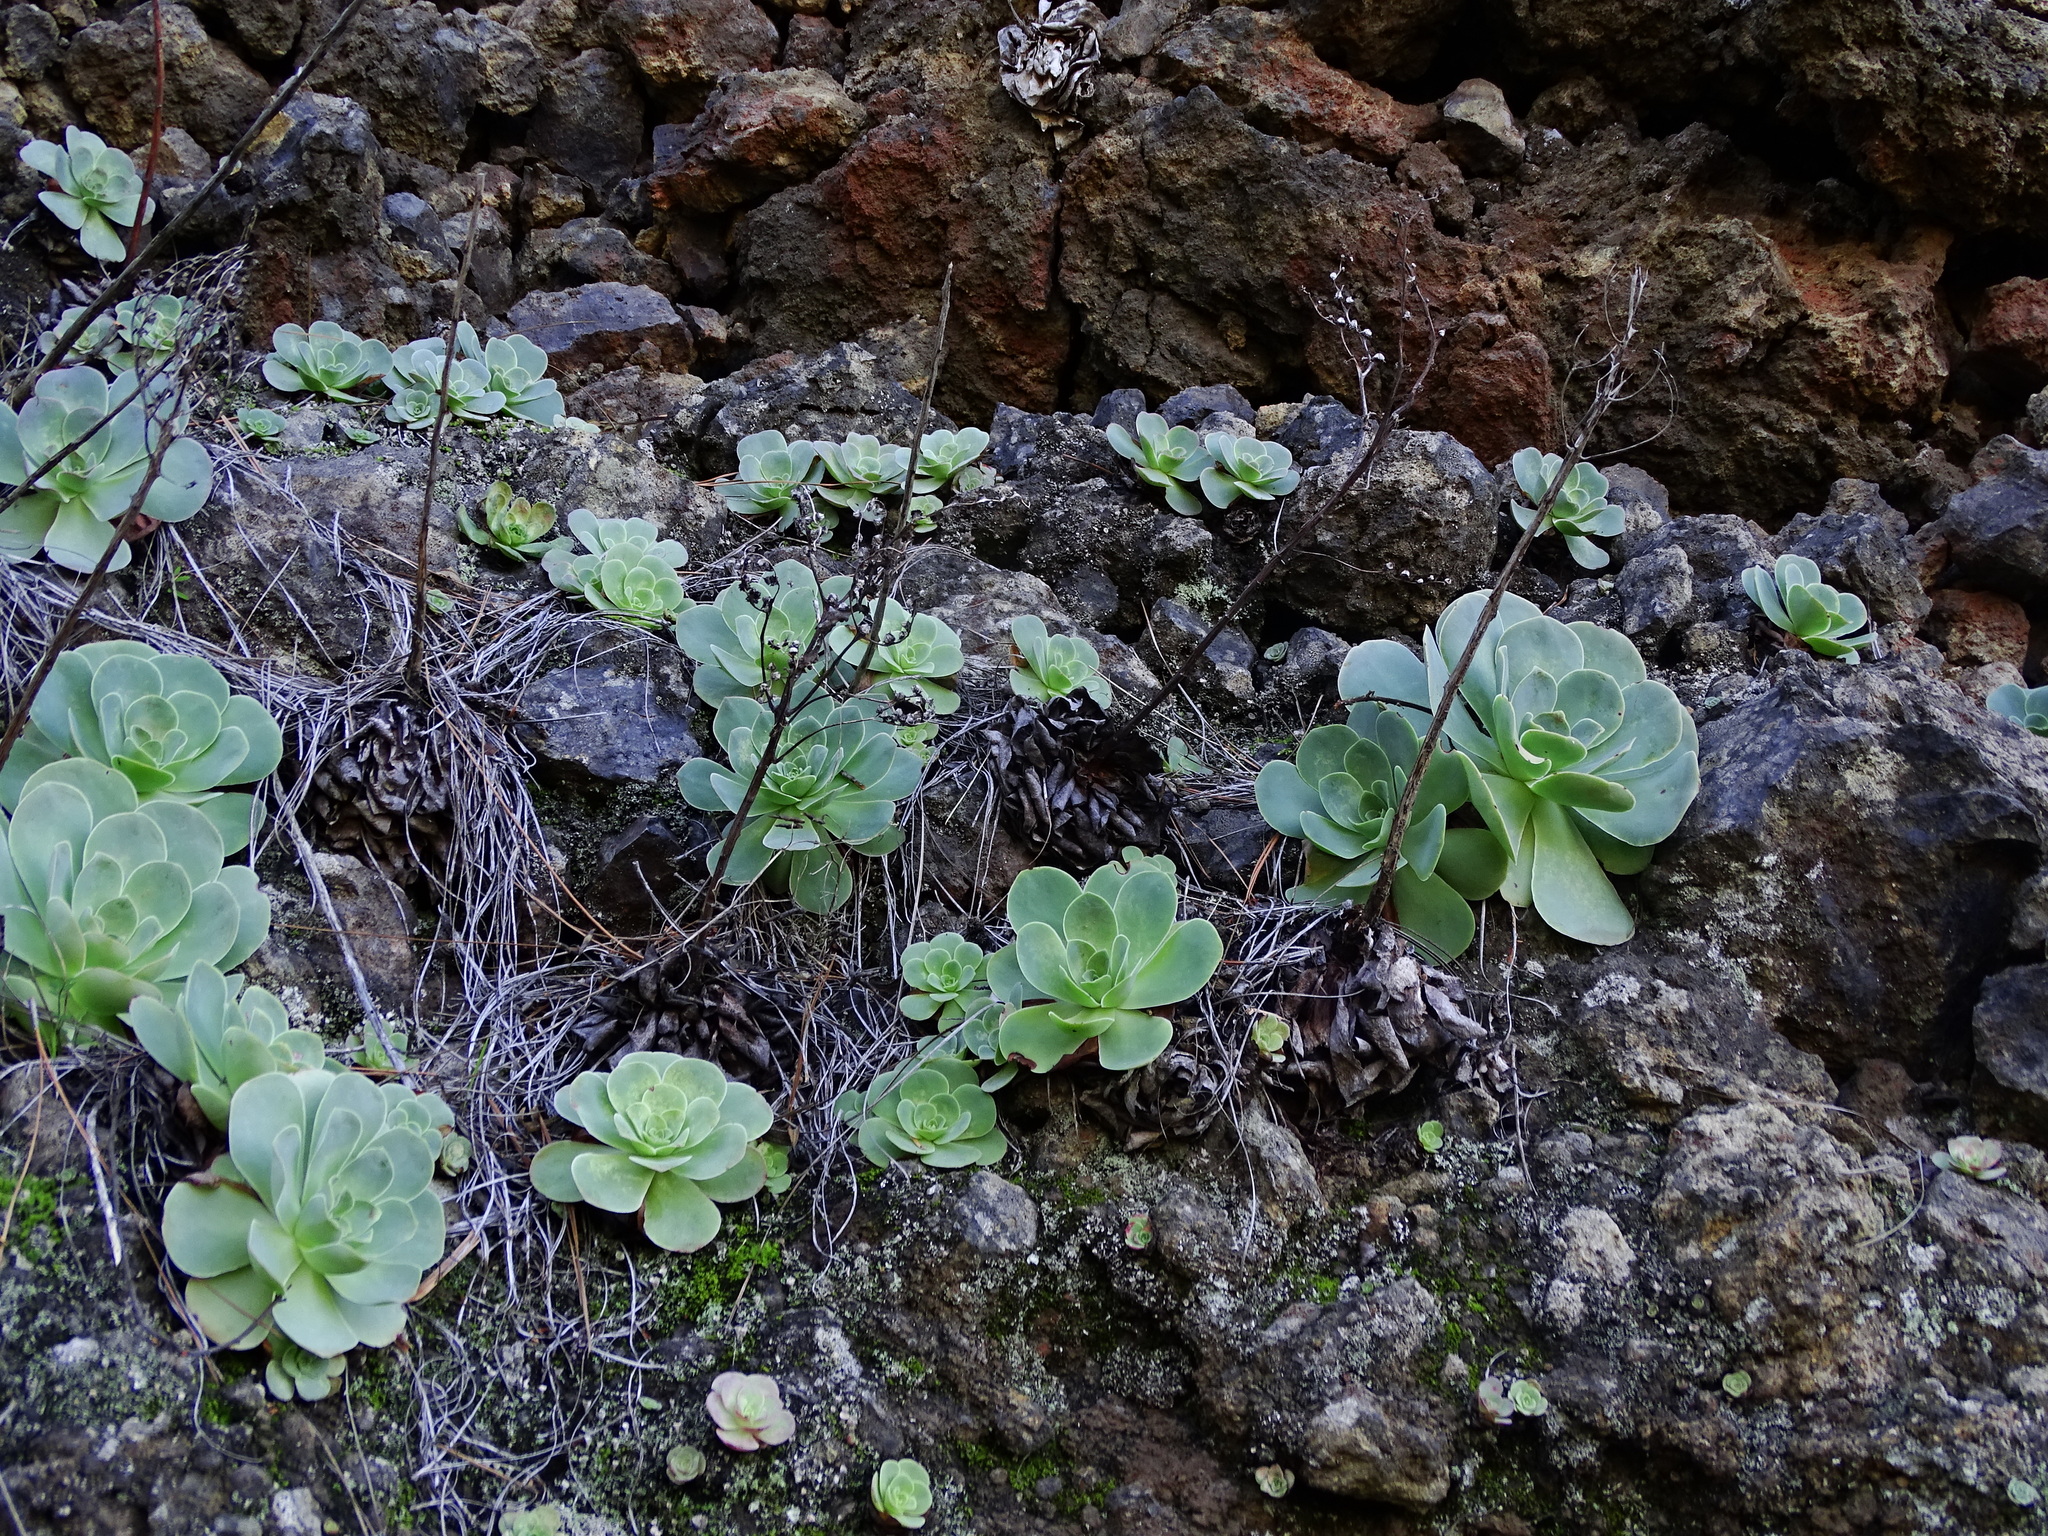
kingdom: Plantae
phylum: Tracheophyta
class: Magnoliopsida
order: Saxifragales
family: Crassulaceae
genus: Aeonium
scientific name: Aeonium diplocyclum
